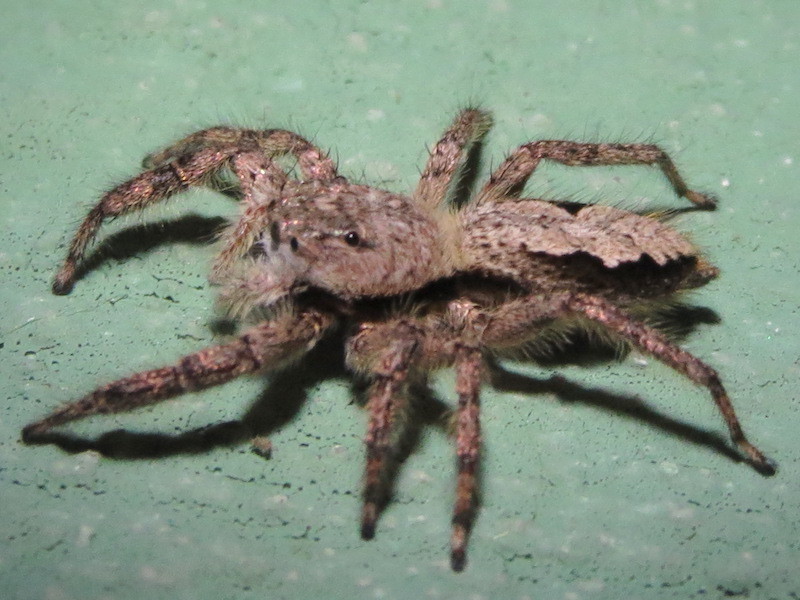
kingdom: Animalia
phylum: Arthropoda
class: Arachnida
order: Araneae
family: Salticidae
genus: Platycryptus
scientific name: Platycryptus undatus
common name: Tan jumping spider
